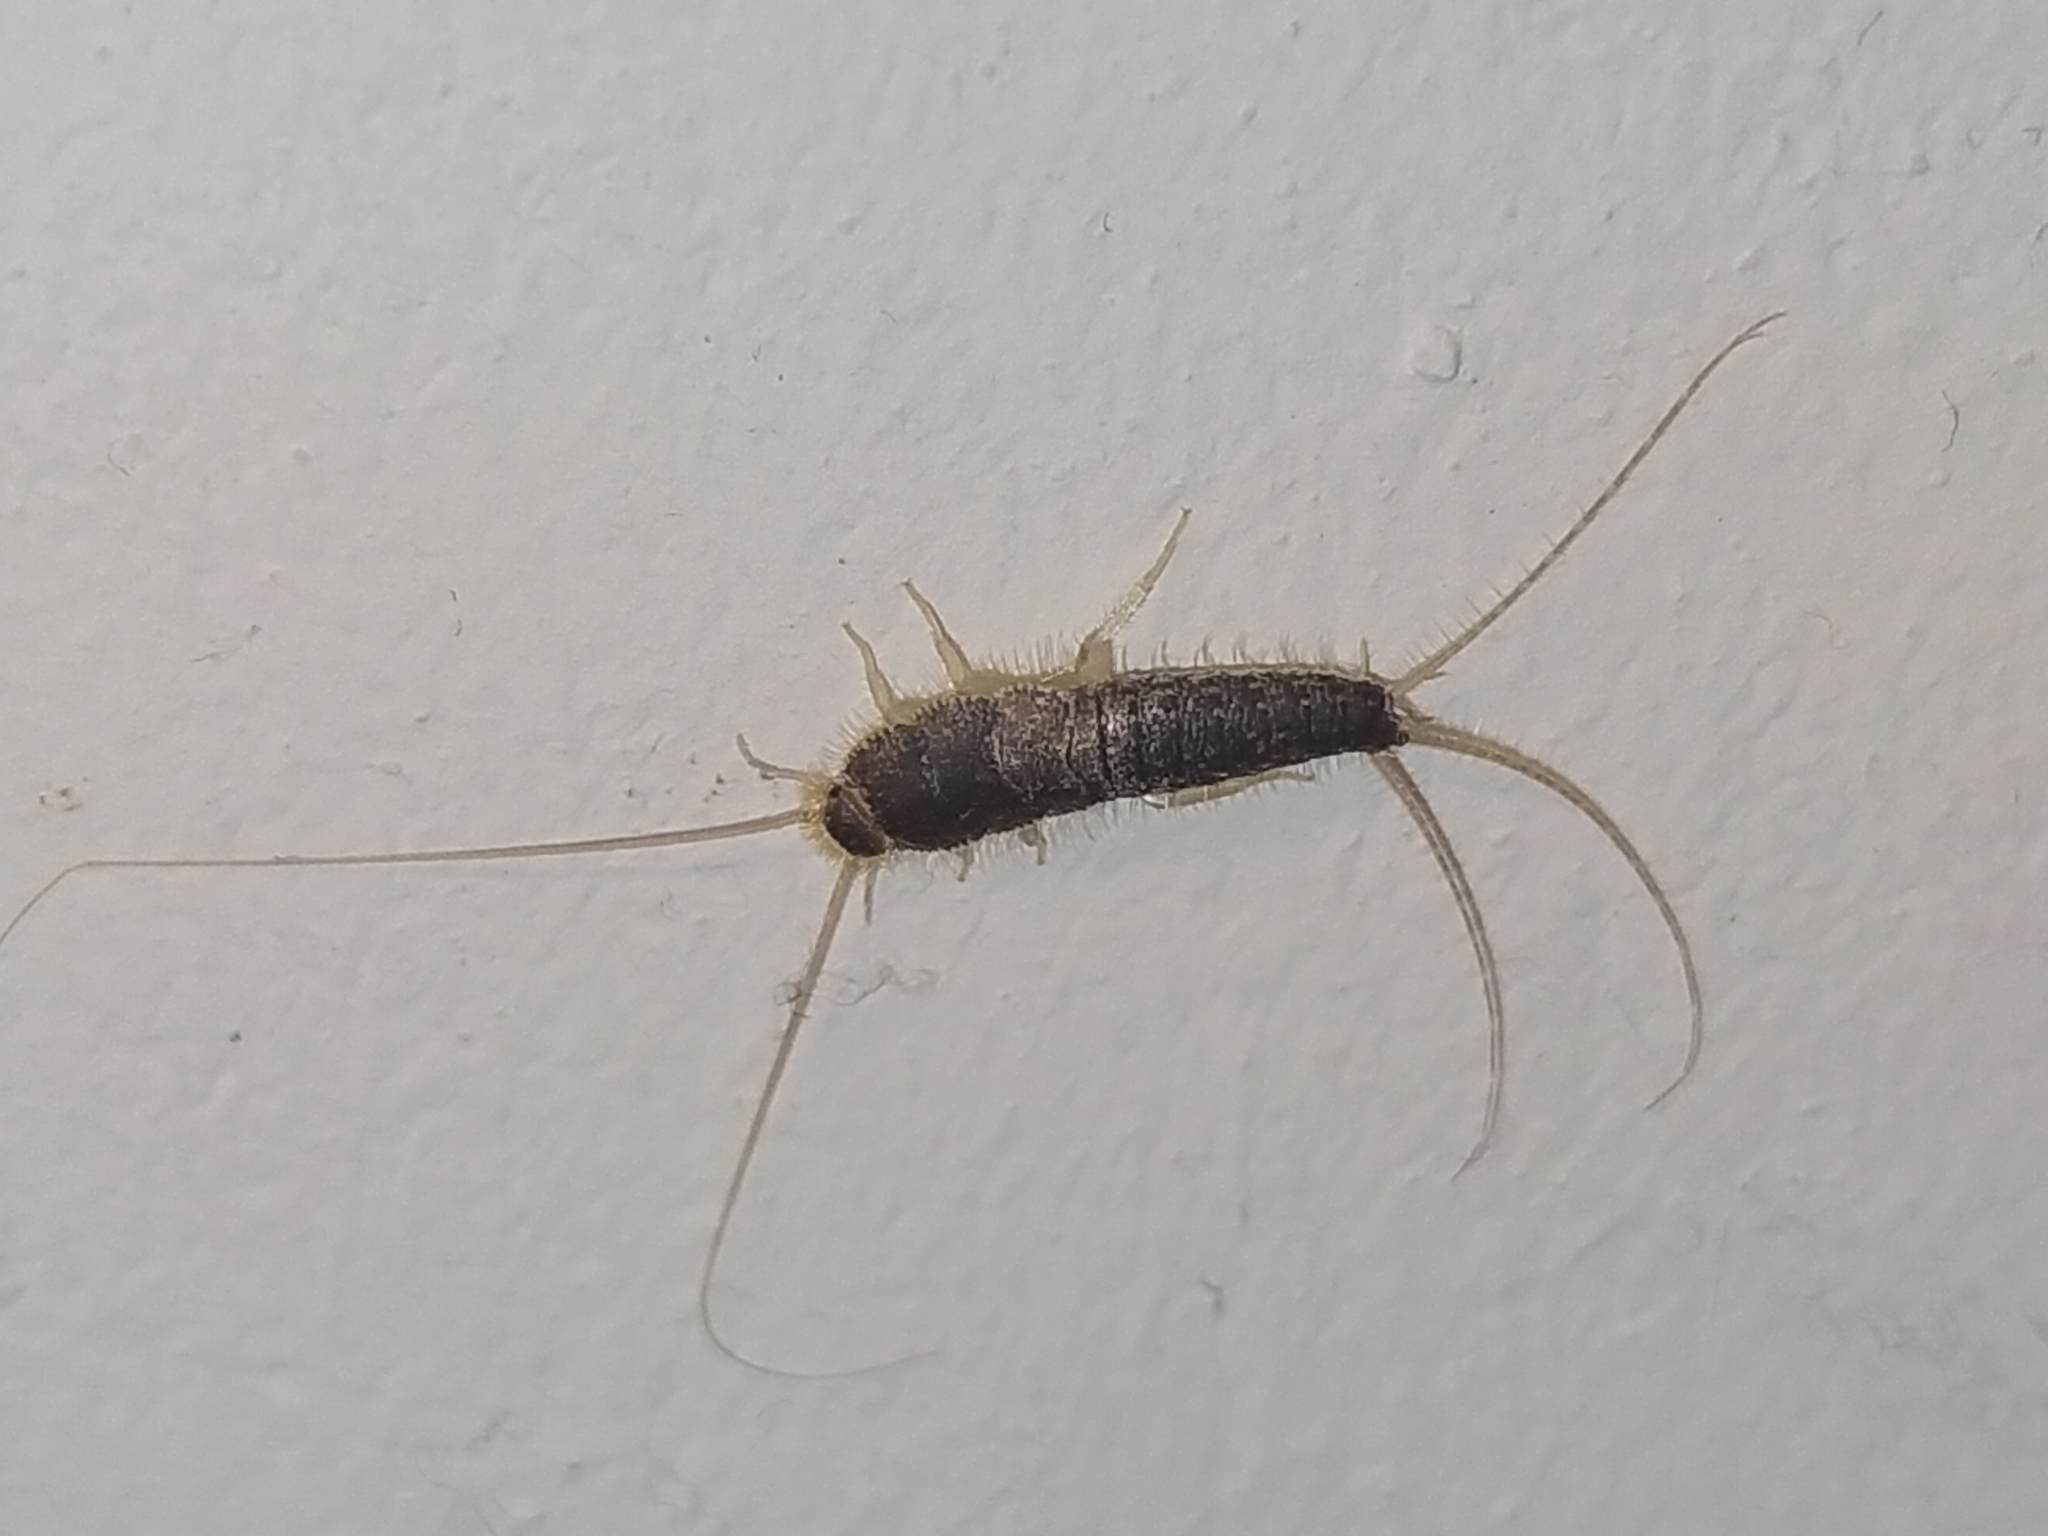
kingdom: Animalia
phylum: Arthropoda
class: Insecta
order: Zygentoma
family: Lepismatidae
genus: Ctenolepisma
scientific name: Ctenolepisma longicaudatum
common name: Silverfish
